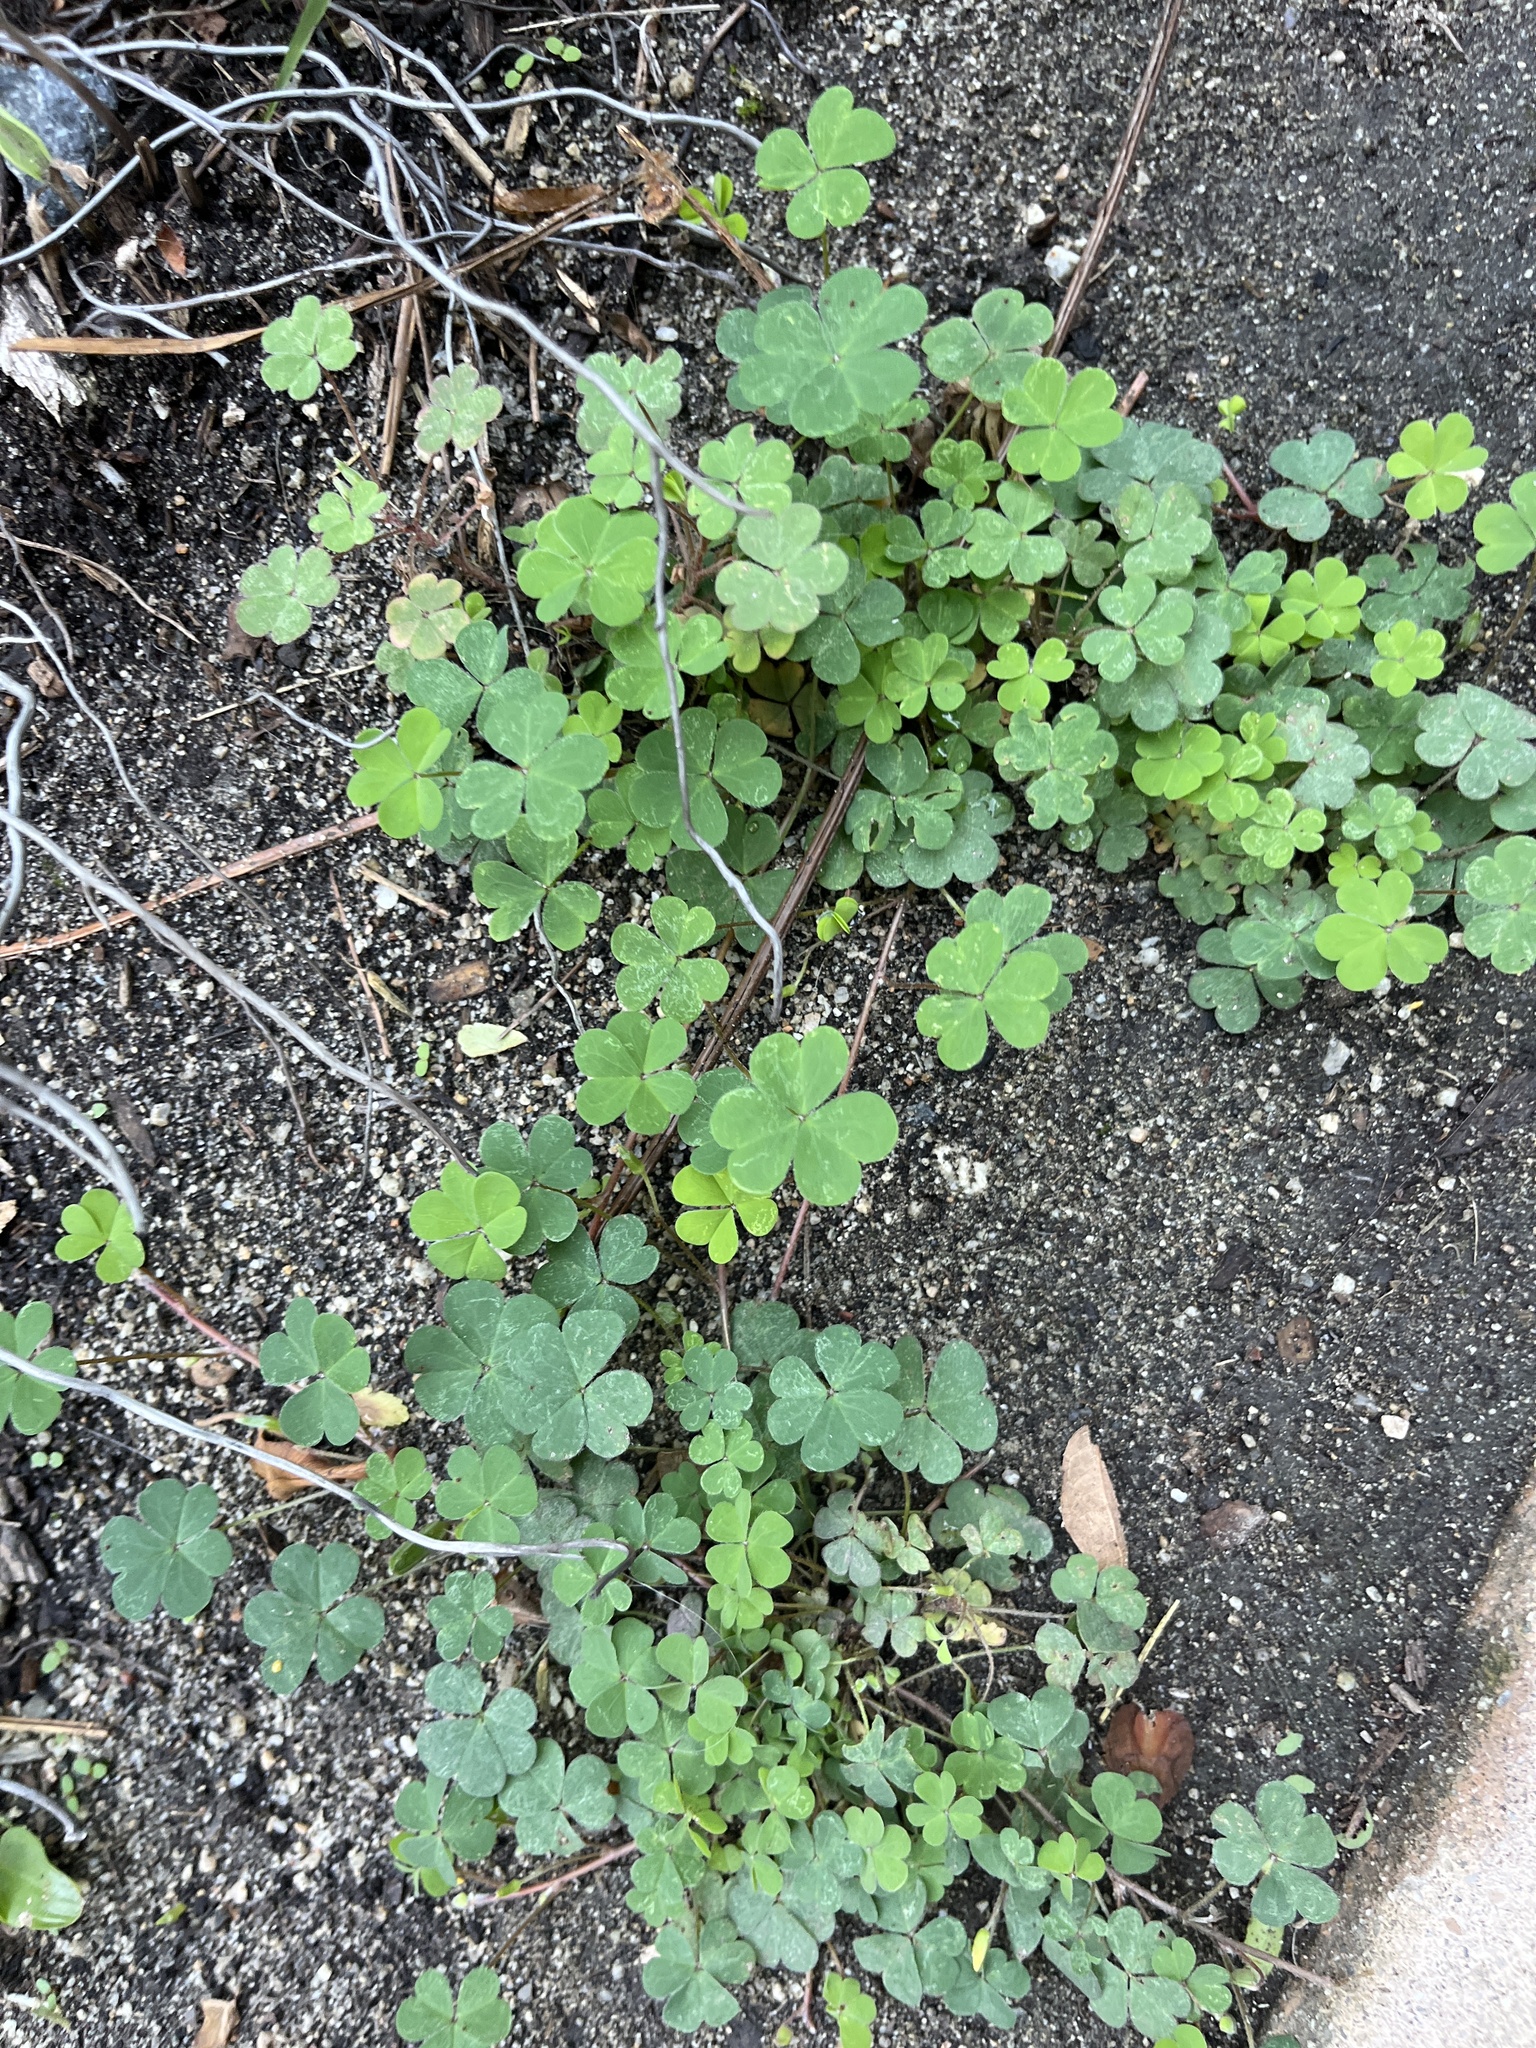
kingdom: Plantae
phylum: Tracheophyta
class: Magnoliopsida
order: Oxalidales
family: Oxalidaceae
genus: Oxalis
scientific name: Oxalis corniculata
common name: Procumbent yellow-sorrel
